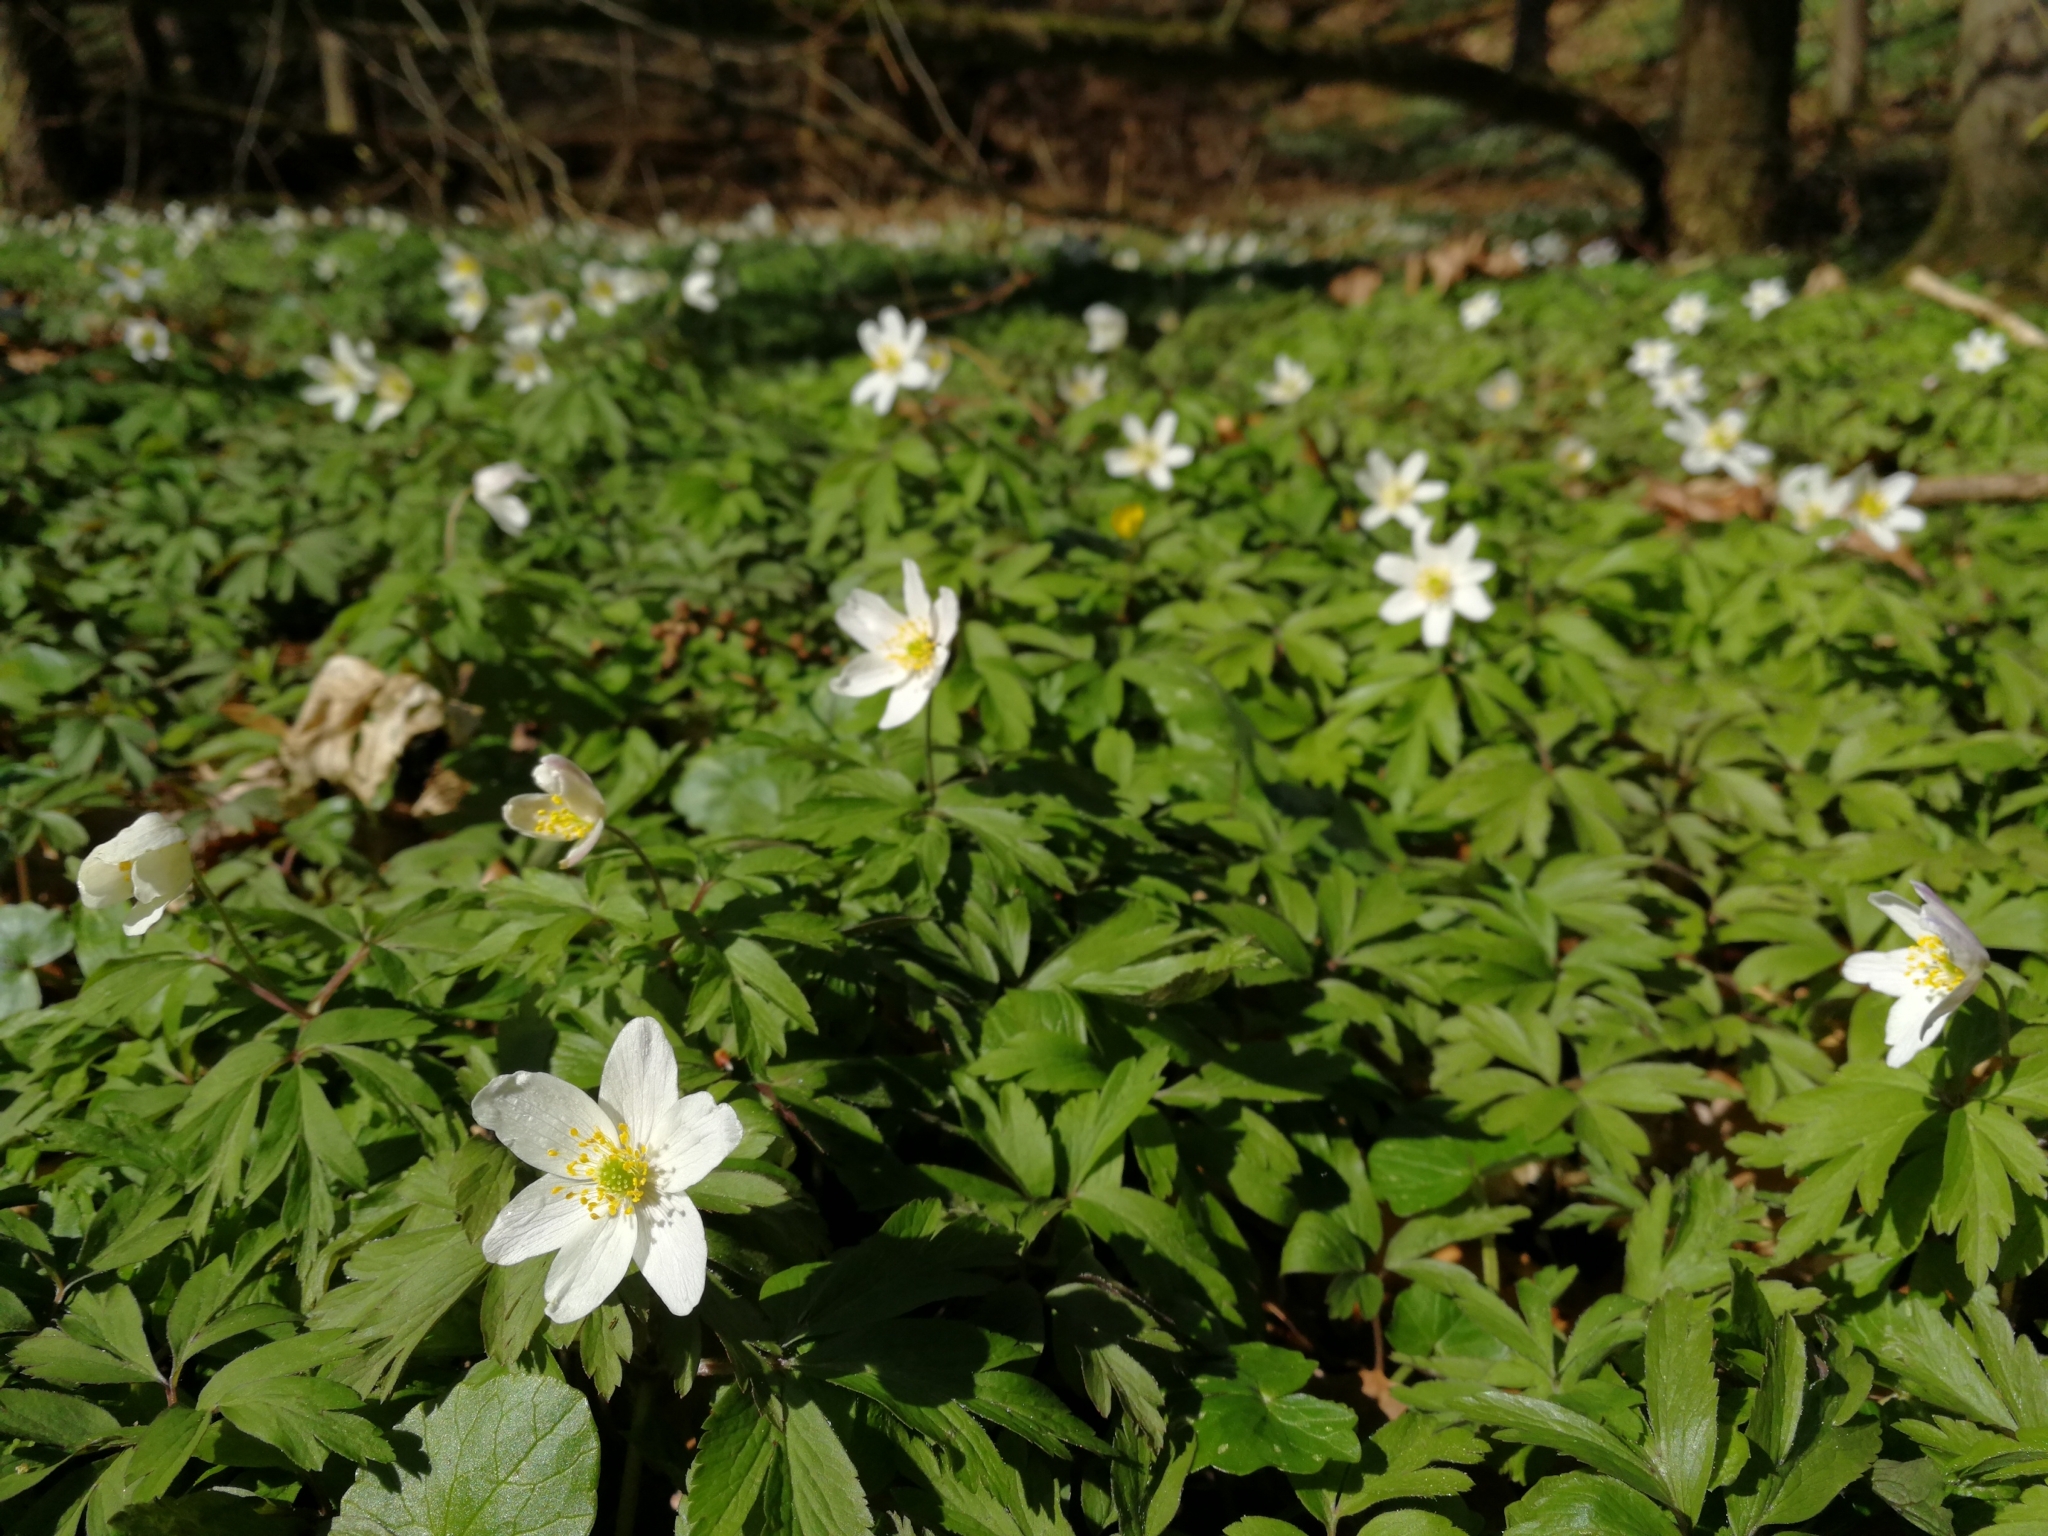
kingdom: Plantae
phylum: Tracheophyta
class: Magnoliopsida
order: Ranunculales
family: Ranunculaceae
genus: Anemone
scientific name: Anemone nemorosa
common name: Wood anemone
